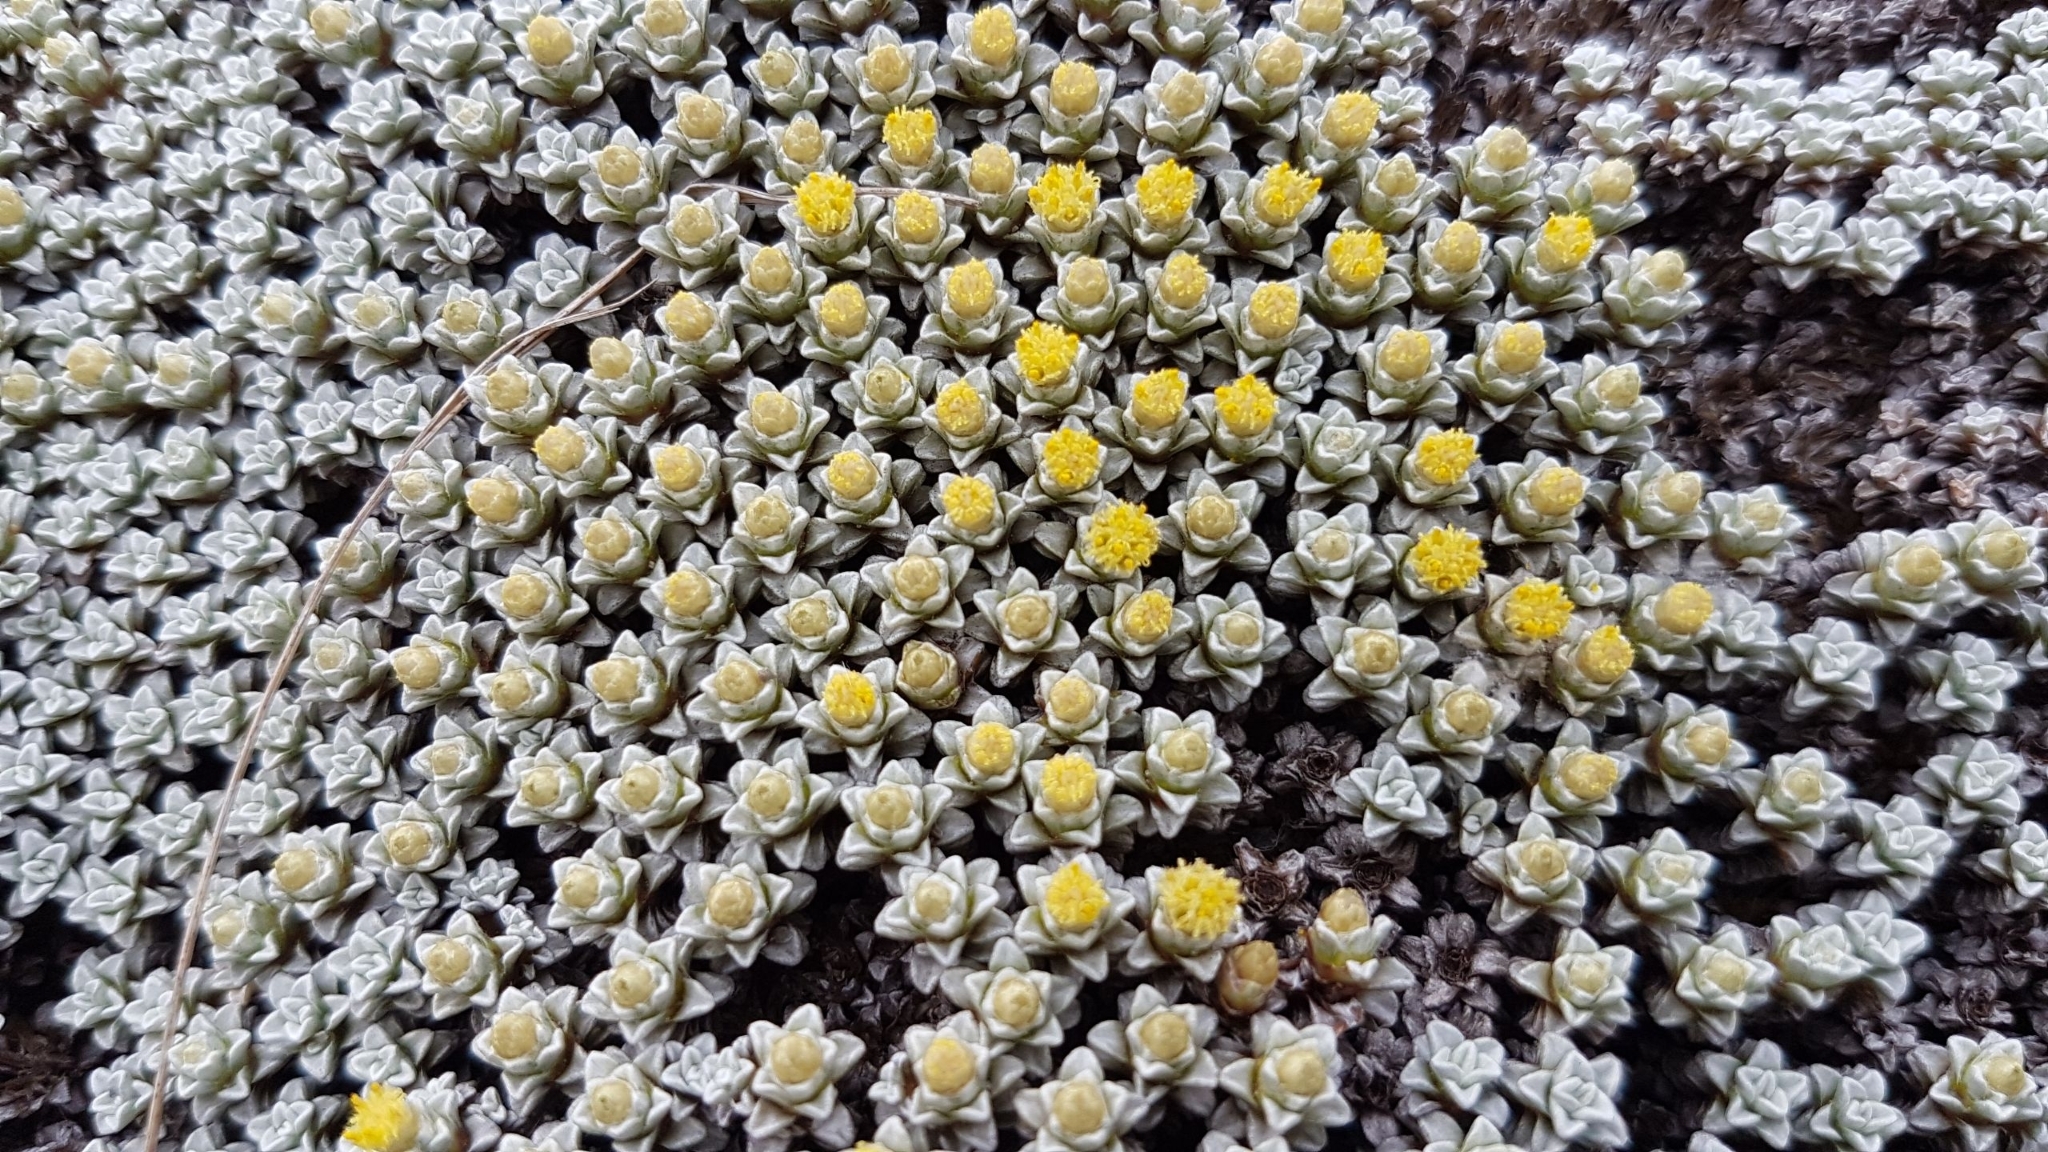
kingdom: Plantae
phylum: Tracheophyta
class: Magnoliopsida
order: Asterales
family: Asteraceae
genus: Raoulia
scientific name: Raoulia hookeri
